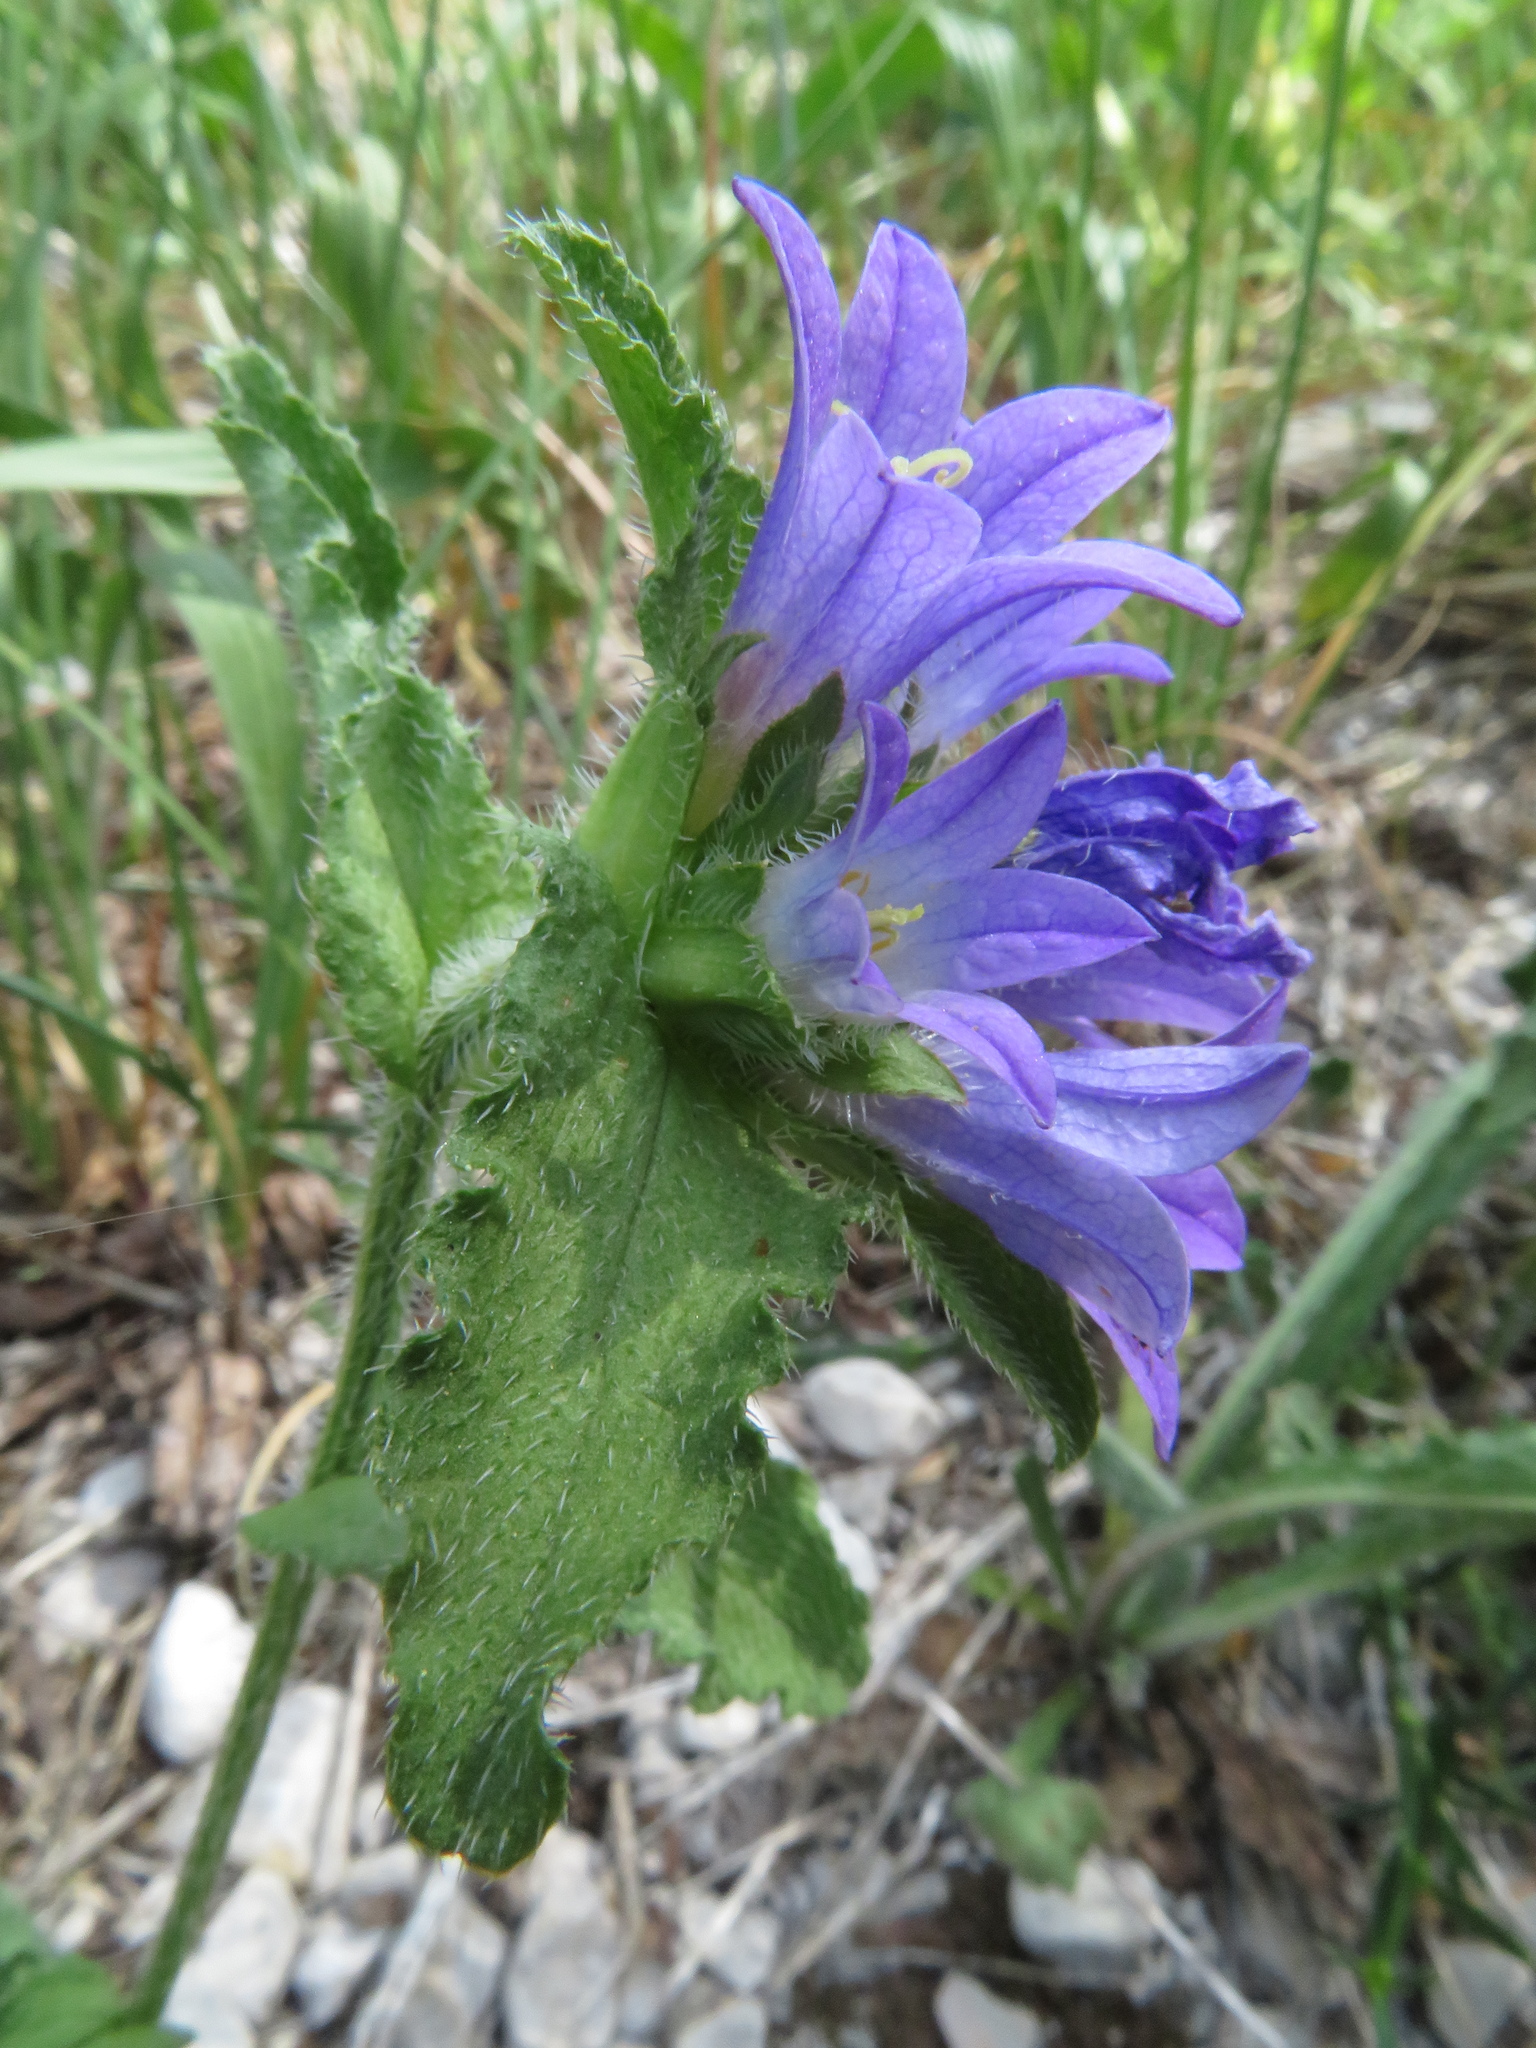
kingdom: Plantae
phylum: Tracheophyta
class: Magnoliopsida
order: Asterales
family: Campanulaceae
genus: Campanula
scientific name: Campanula lingulata
